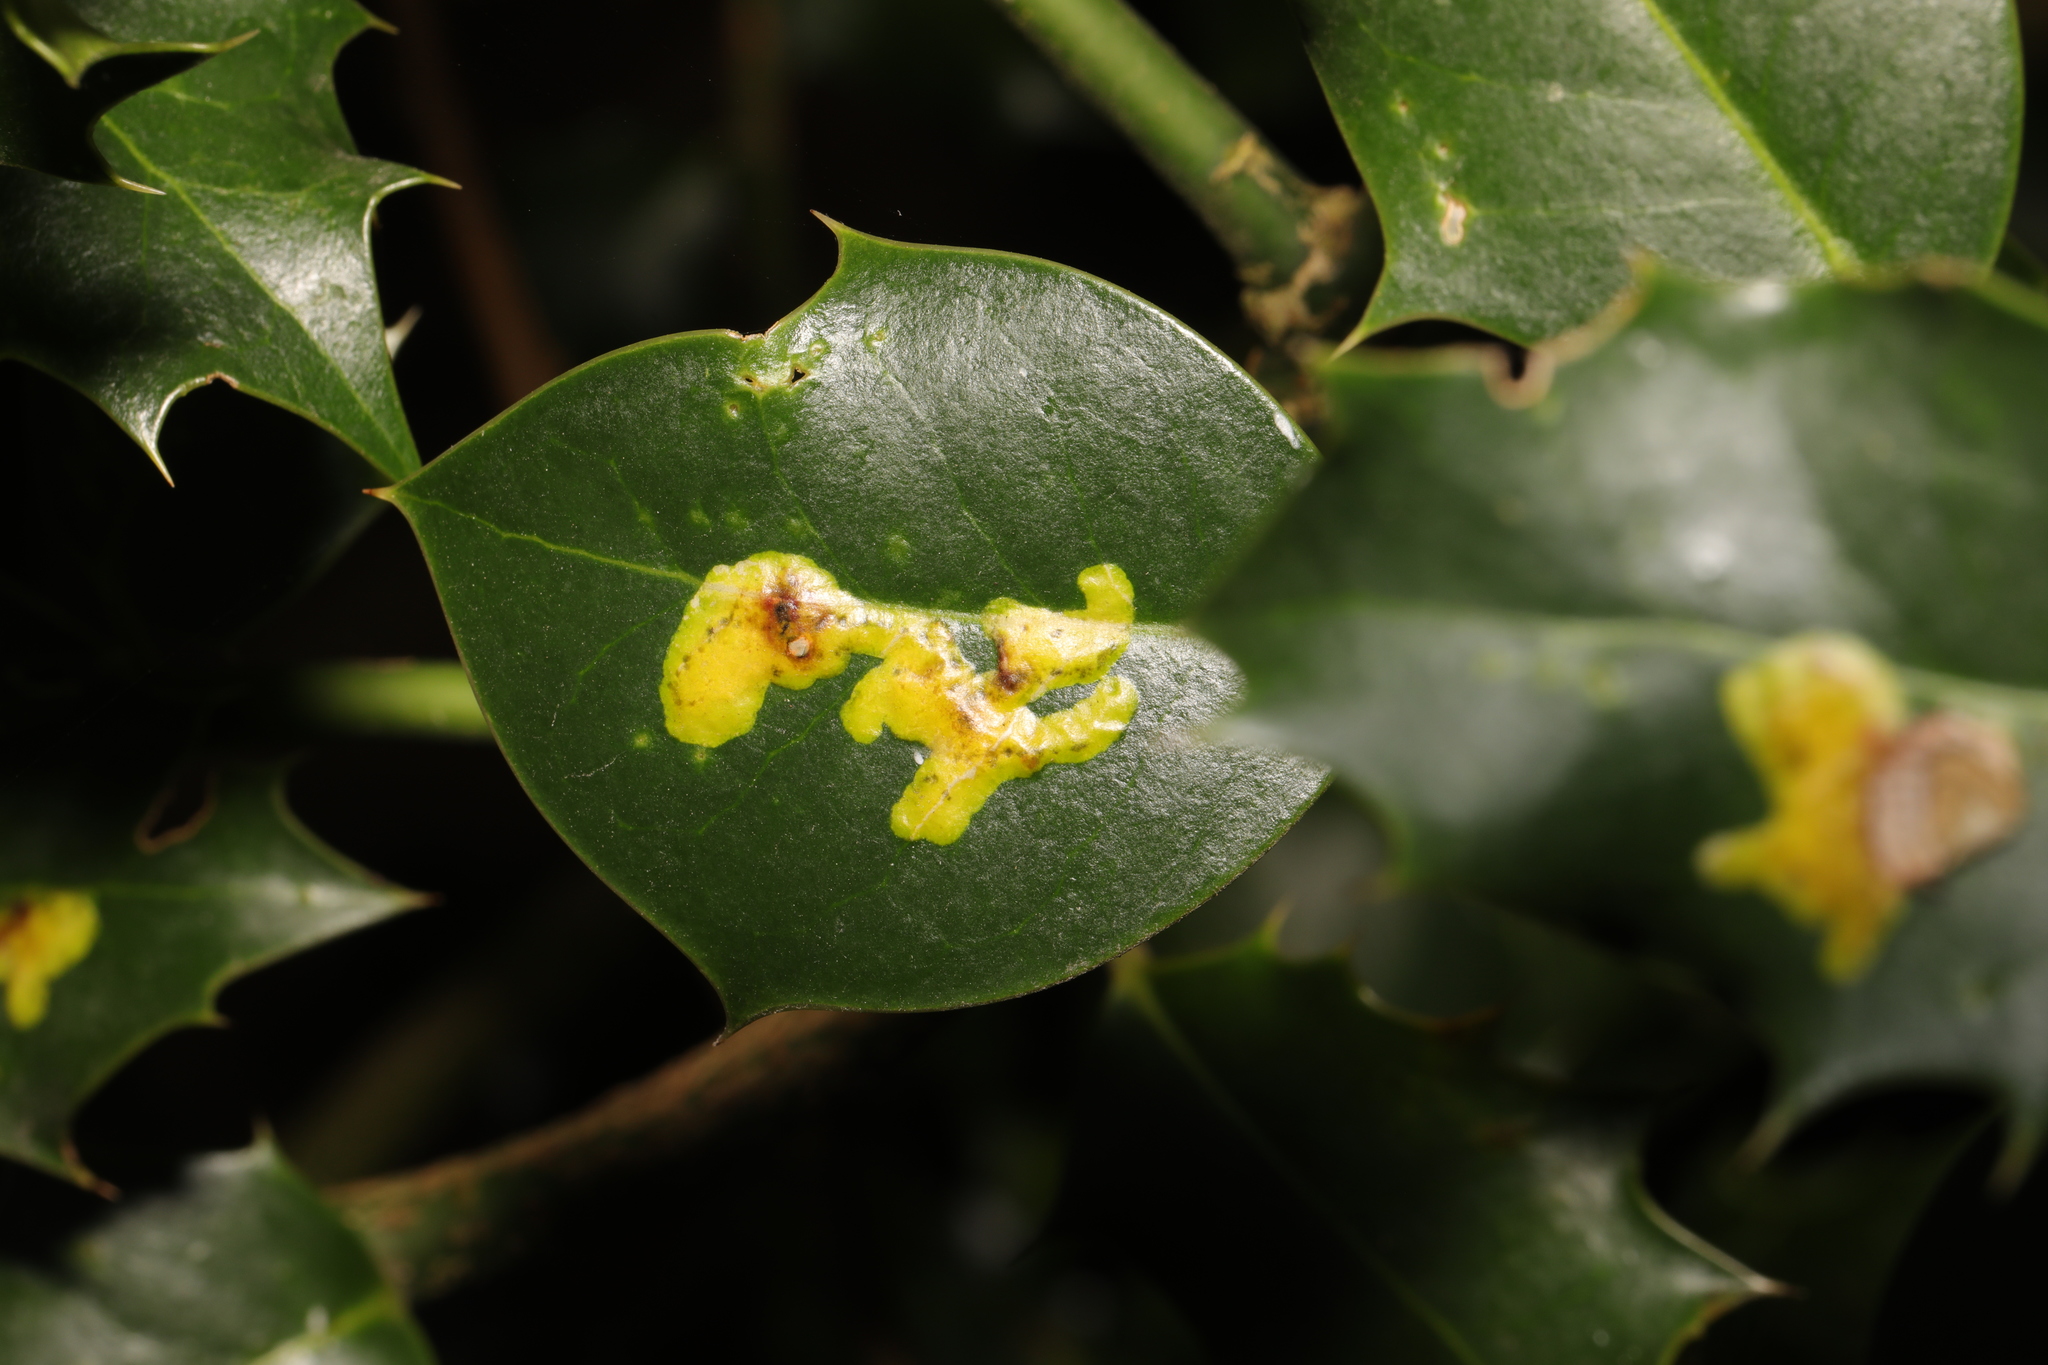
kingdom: Animalia
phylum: Arthropoda
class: Insecta
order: Diptera
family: Agromyzidae
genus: Phytomyza
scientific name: Phytomyza ilicis
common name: Holly leafminer
